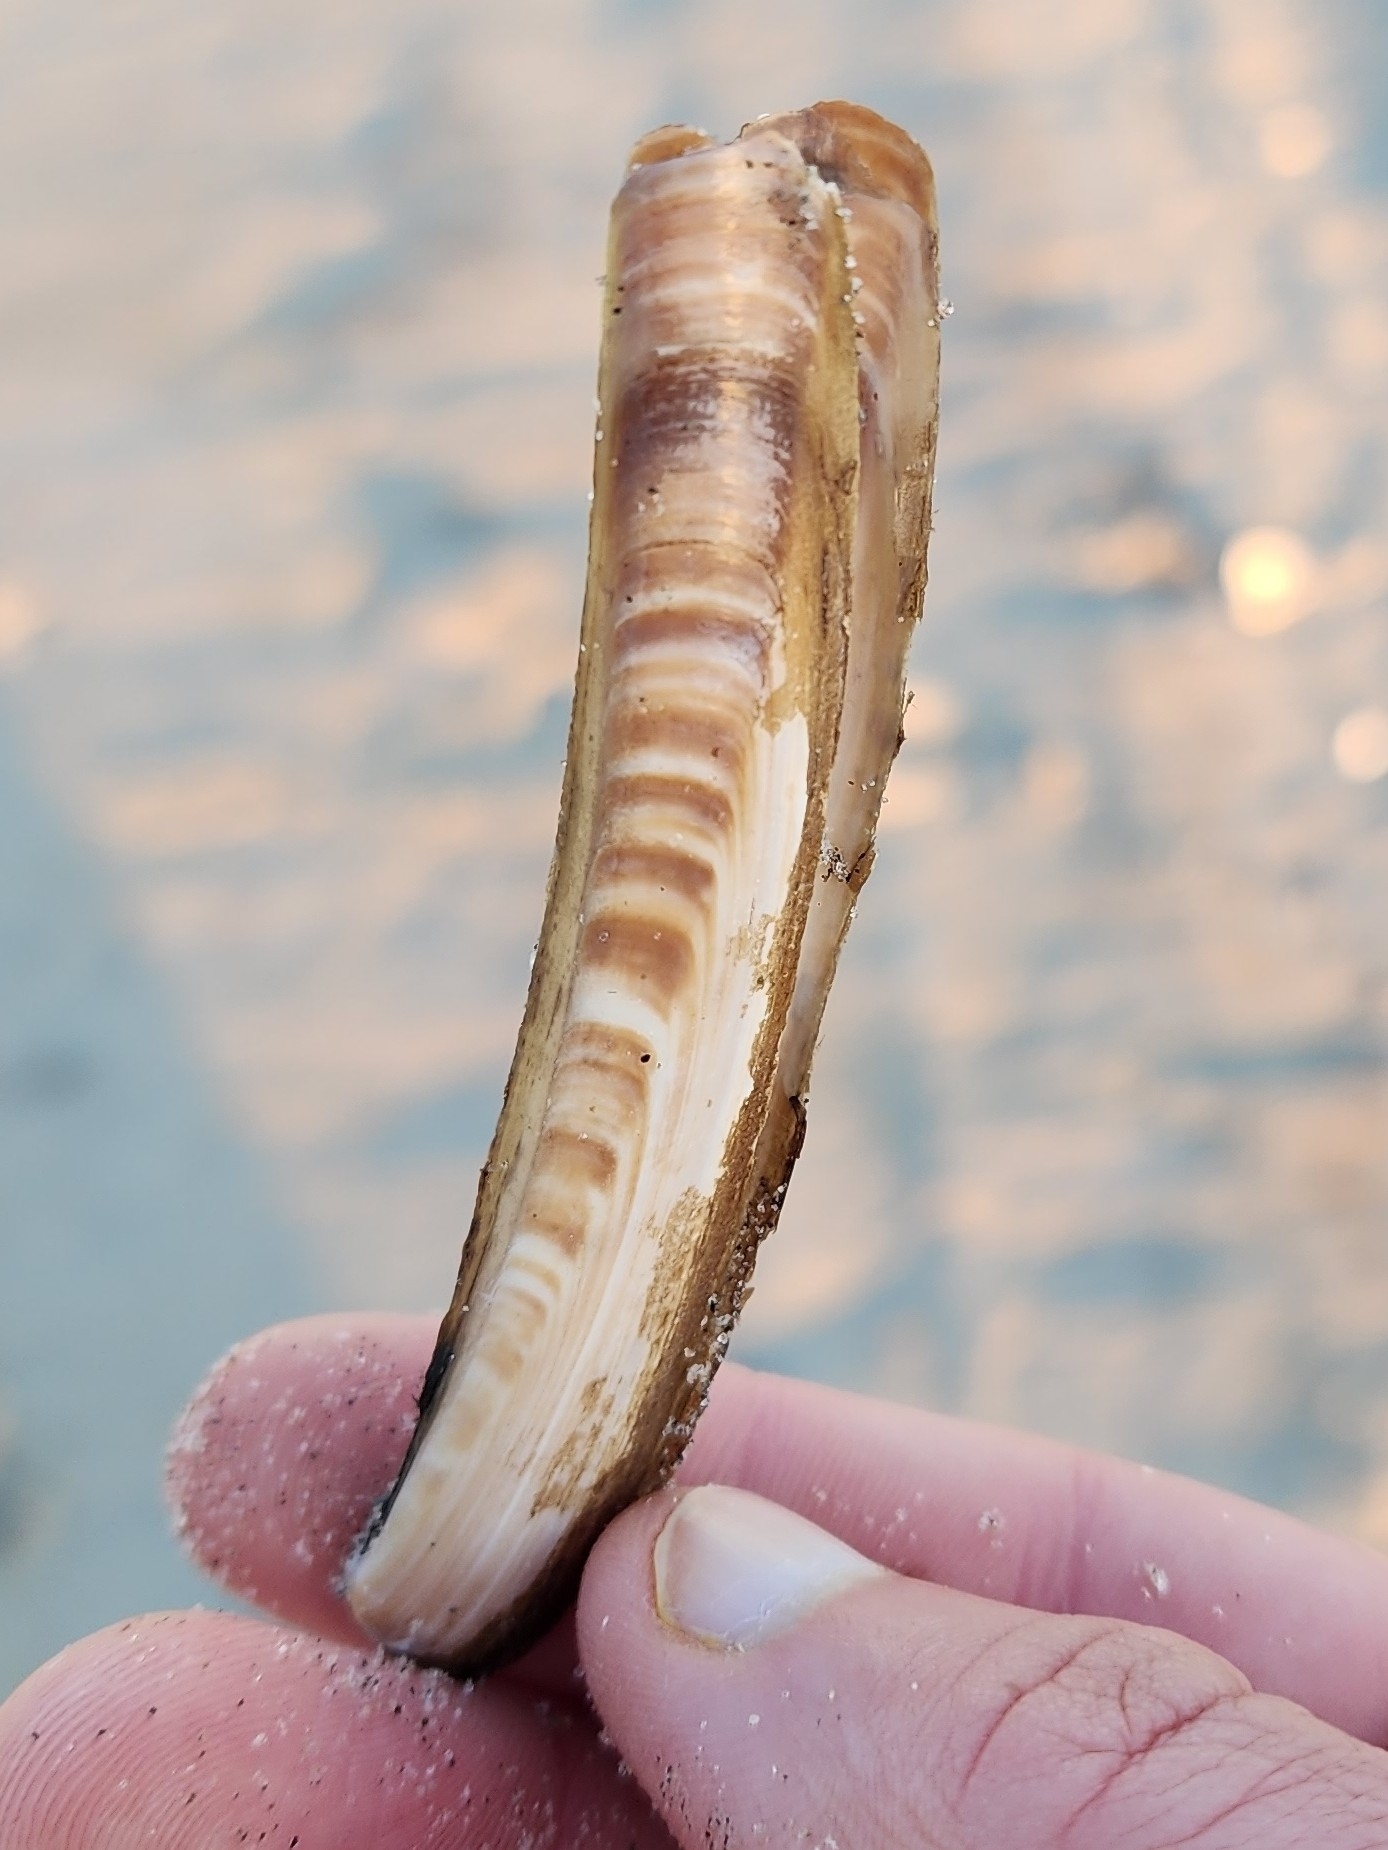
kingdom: Animalia
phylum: Mollusca
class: Bivalvia
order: Adapedonta
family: Pharidae
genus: Ensis
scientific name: Ensis leei
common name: American jack knife clam
